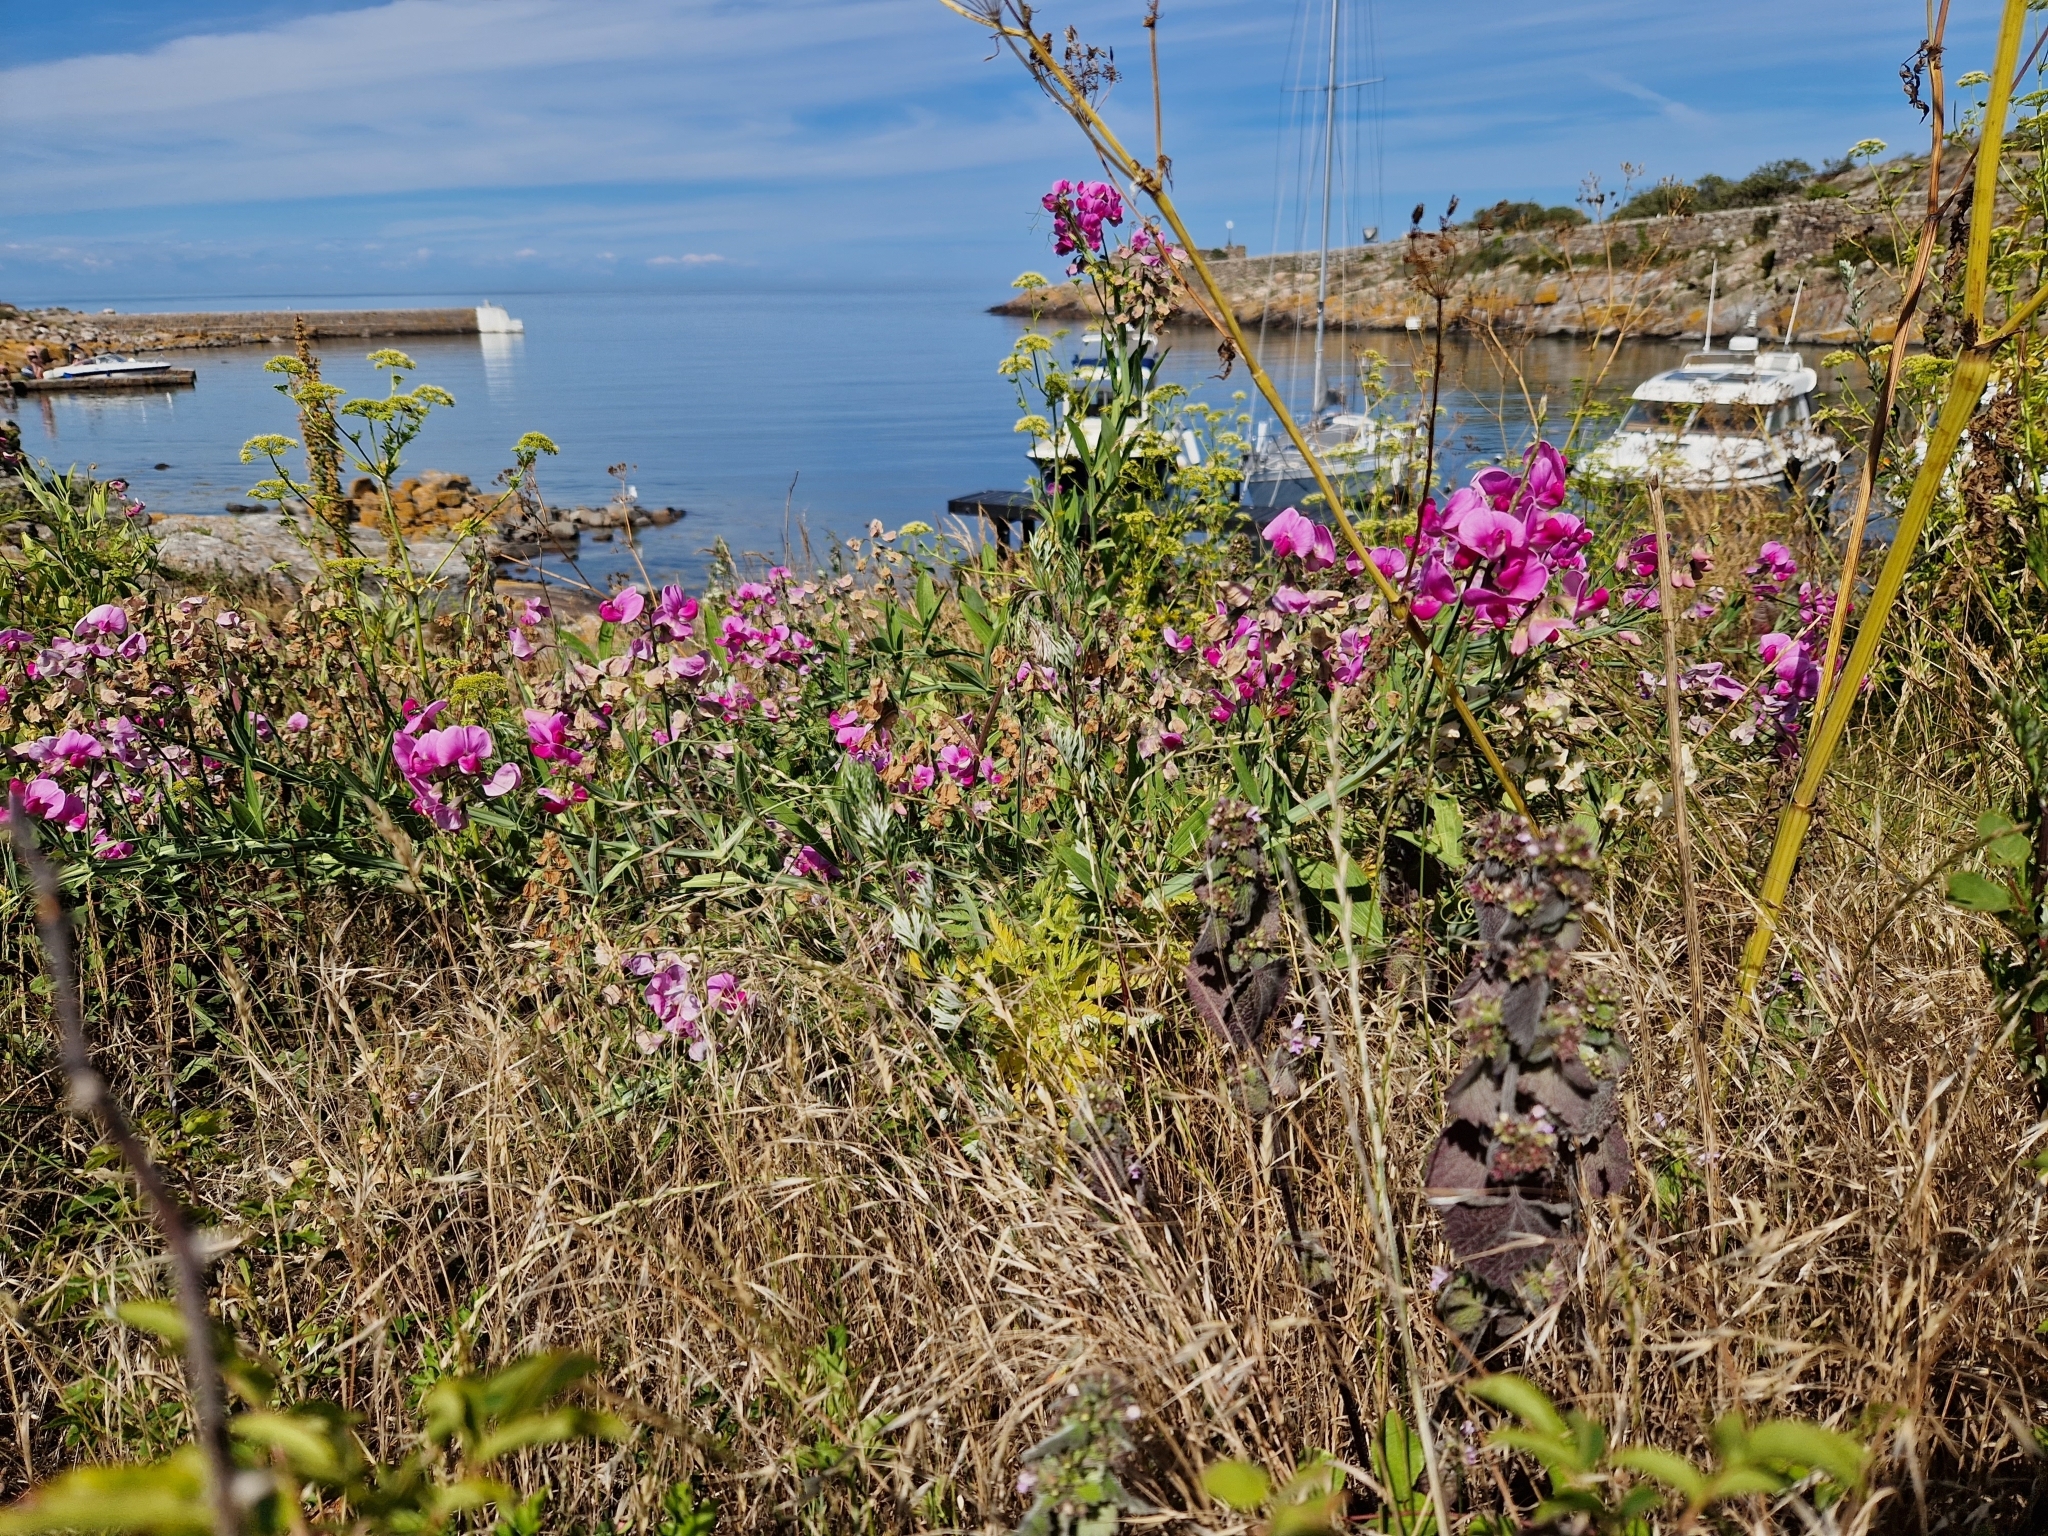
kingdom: Plantae
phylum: Tracheophyta
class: Magnoliopsida
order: Fabales
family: Fabaceae
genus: Lathyrus
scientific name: Lathyrus latifolius
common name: Perennial pea
